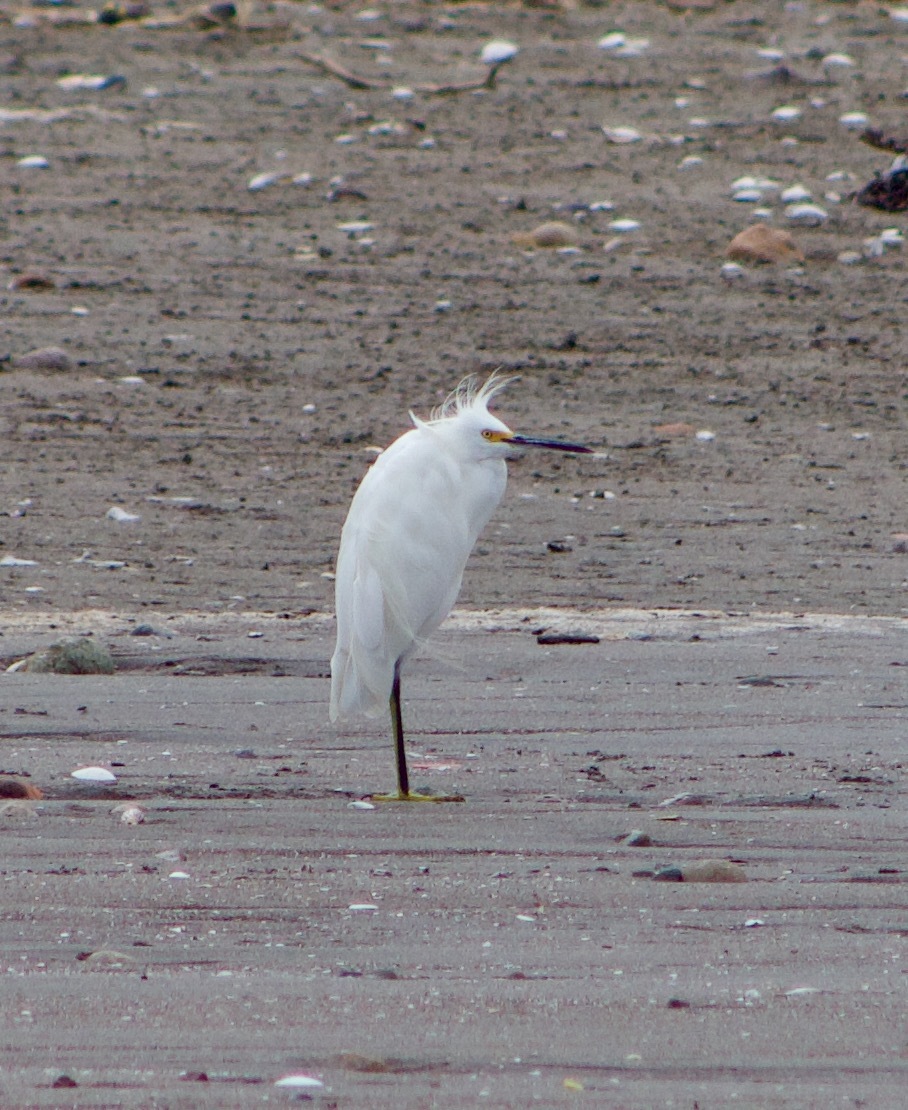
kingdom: Animalia
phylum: Chordata
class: Aves
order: Pelecaniformes
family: Ardeidae
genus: Egretta
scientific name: Egretta thula
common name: Snowy egret
